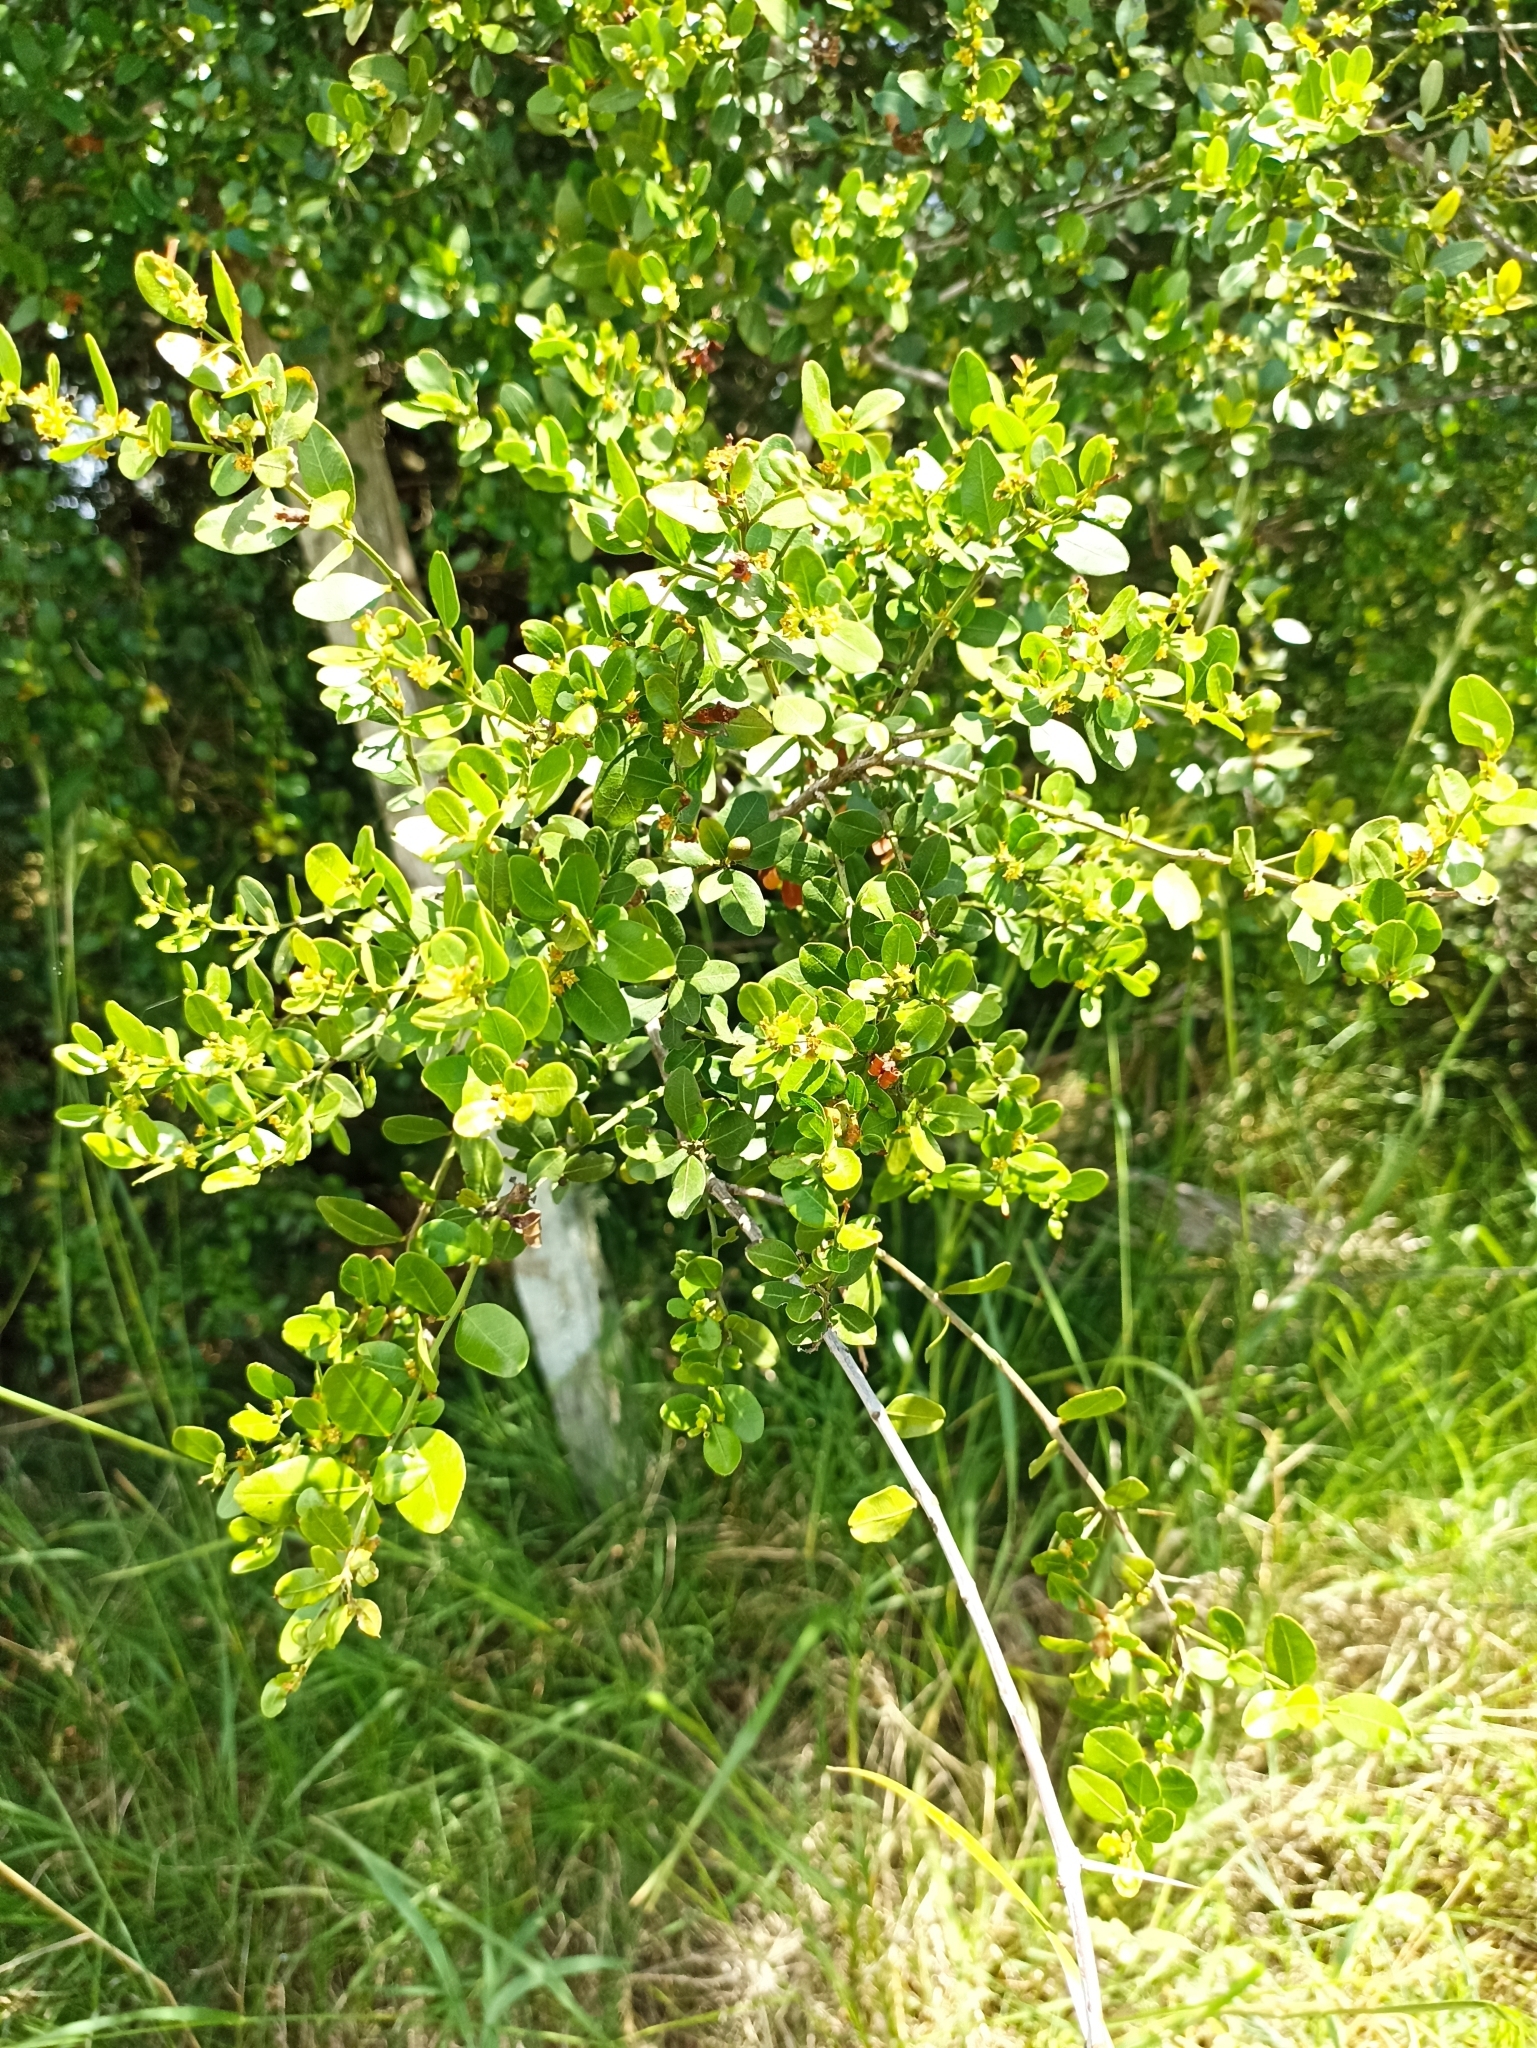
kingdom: Plantae
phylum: Tracheophyta
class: Magnoliopsida
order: Rosales
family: Rhamnaceae
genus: Scutia
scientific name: Scutia buxifolia
